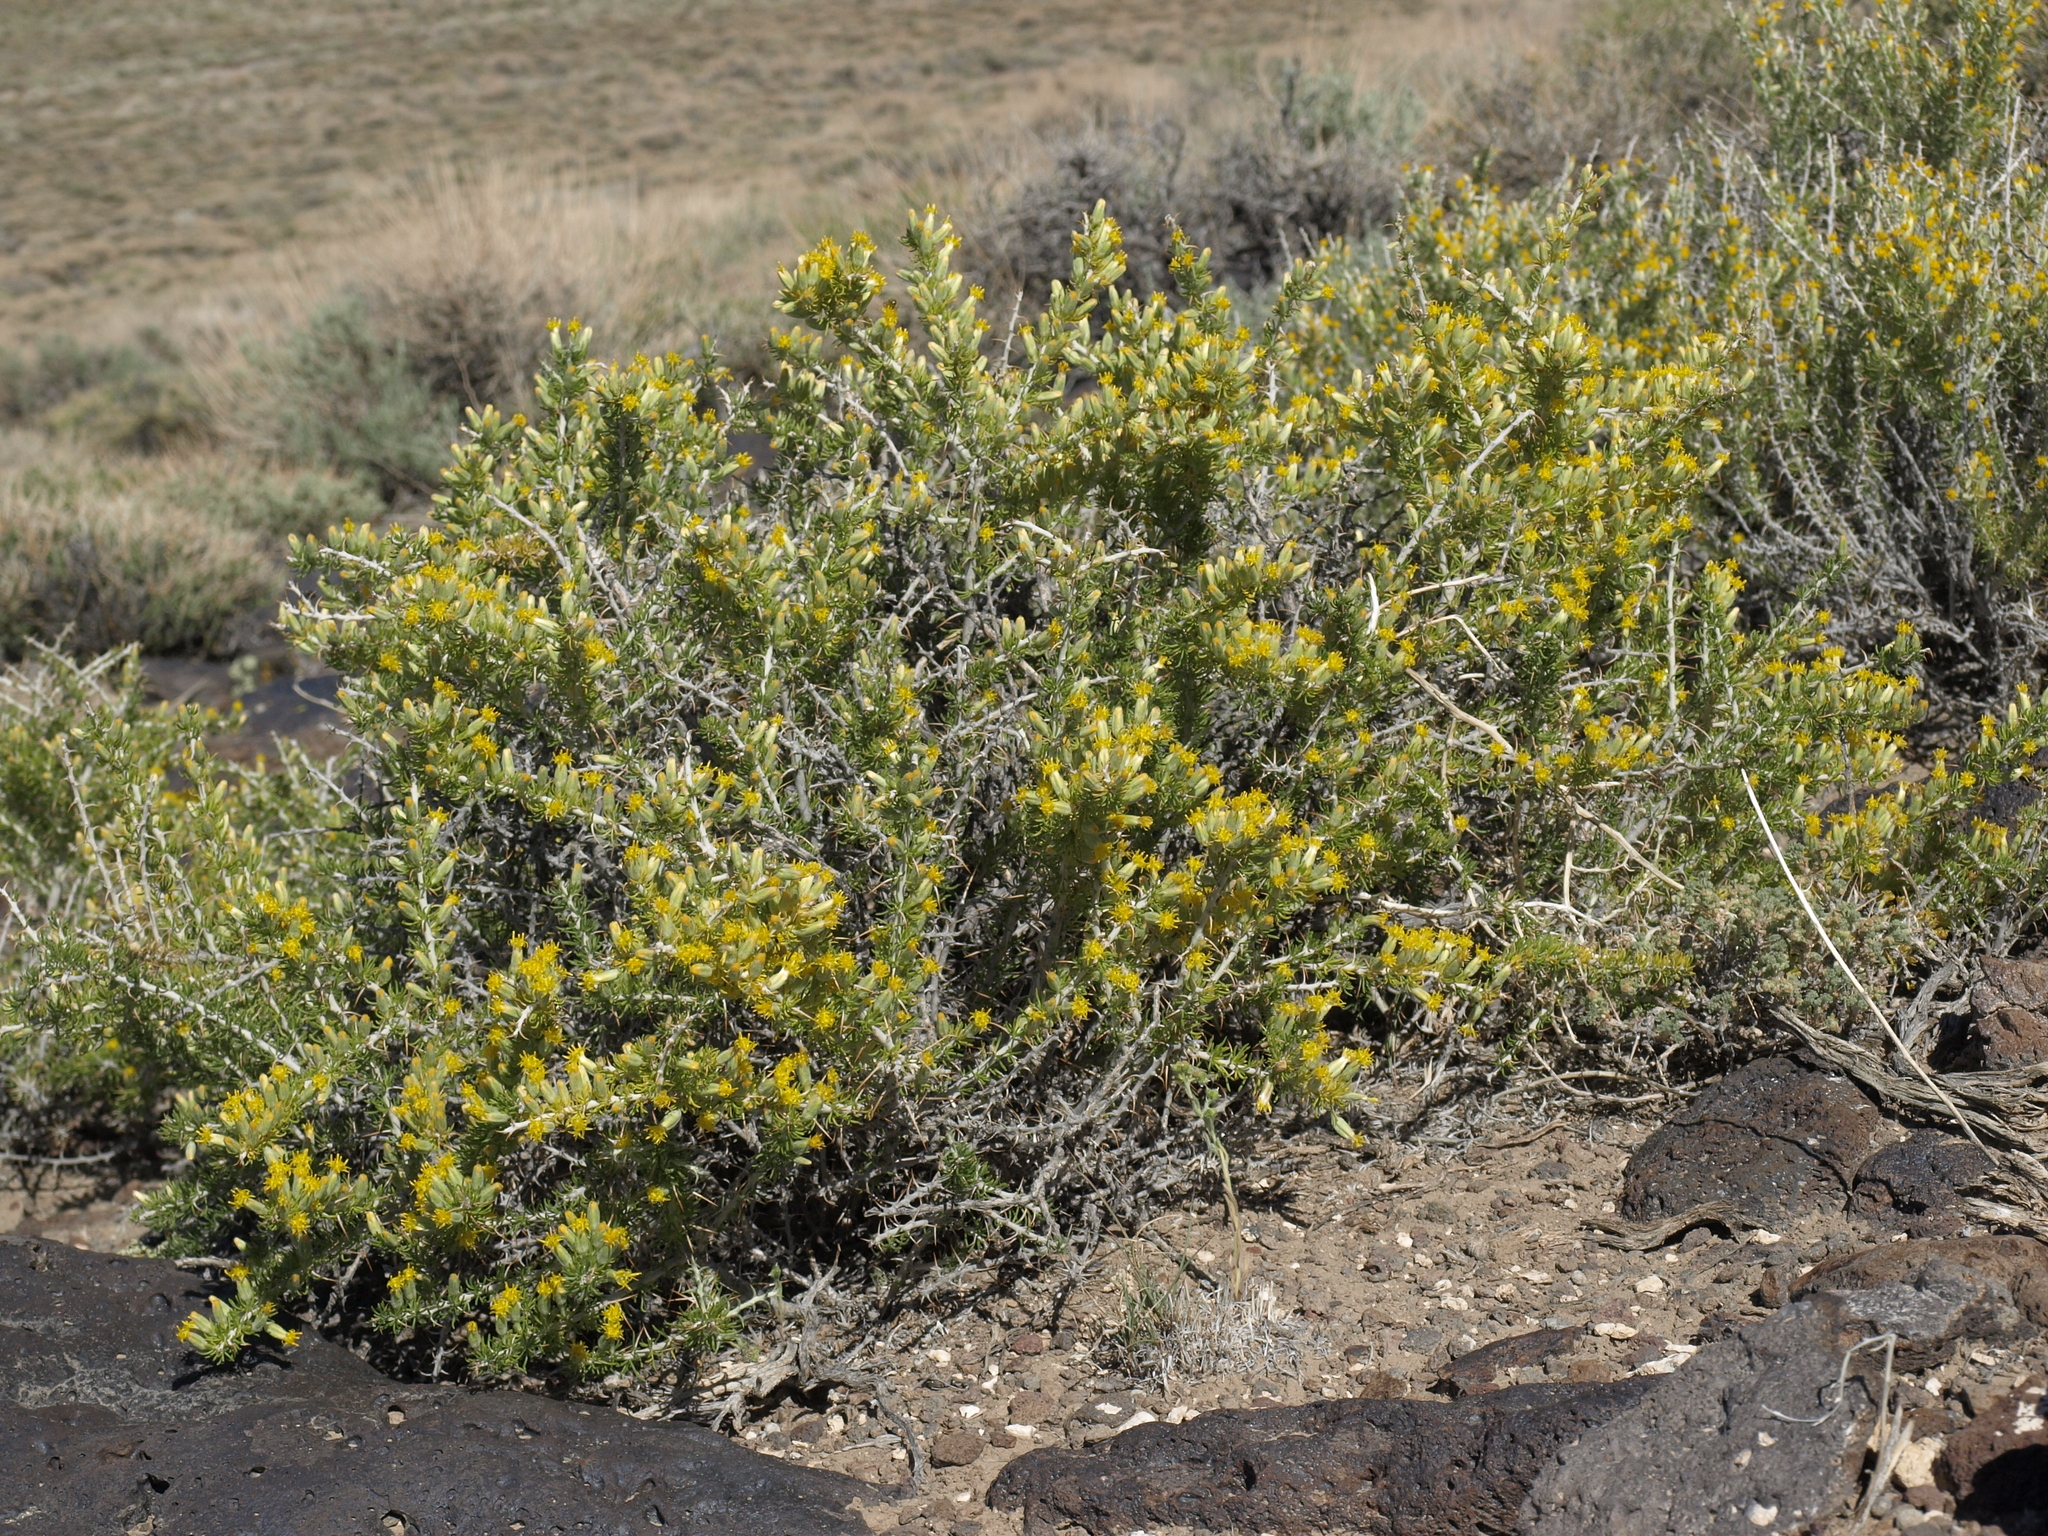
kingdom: Plantae
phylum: Tracheophyta
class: Magnoliopsida
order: Asterales
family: Asteraceae
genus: Tetradymia
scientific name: Tetradymia spinosa
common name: Thorny horsebrush
